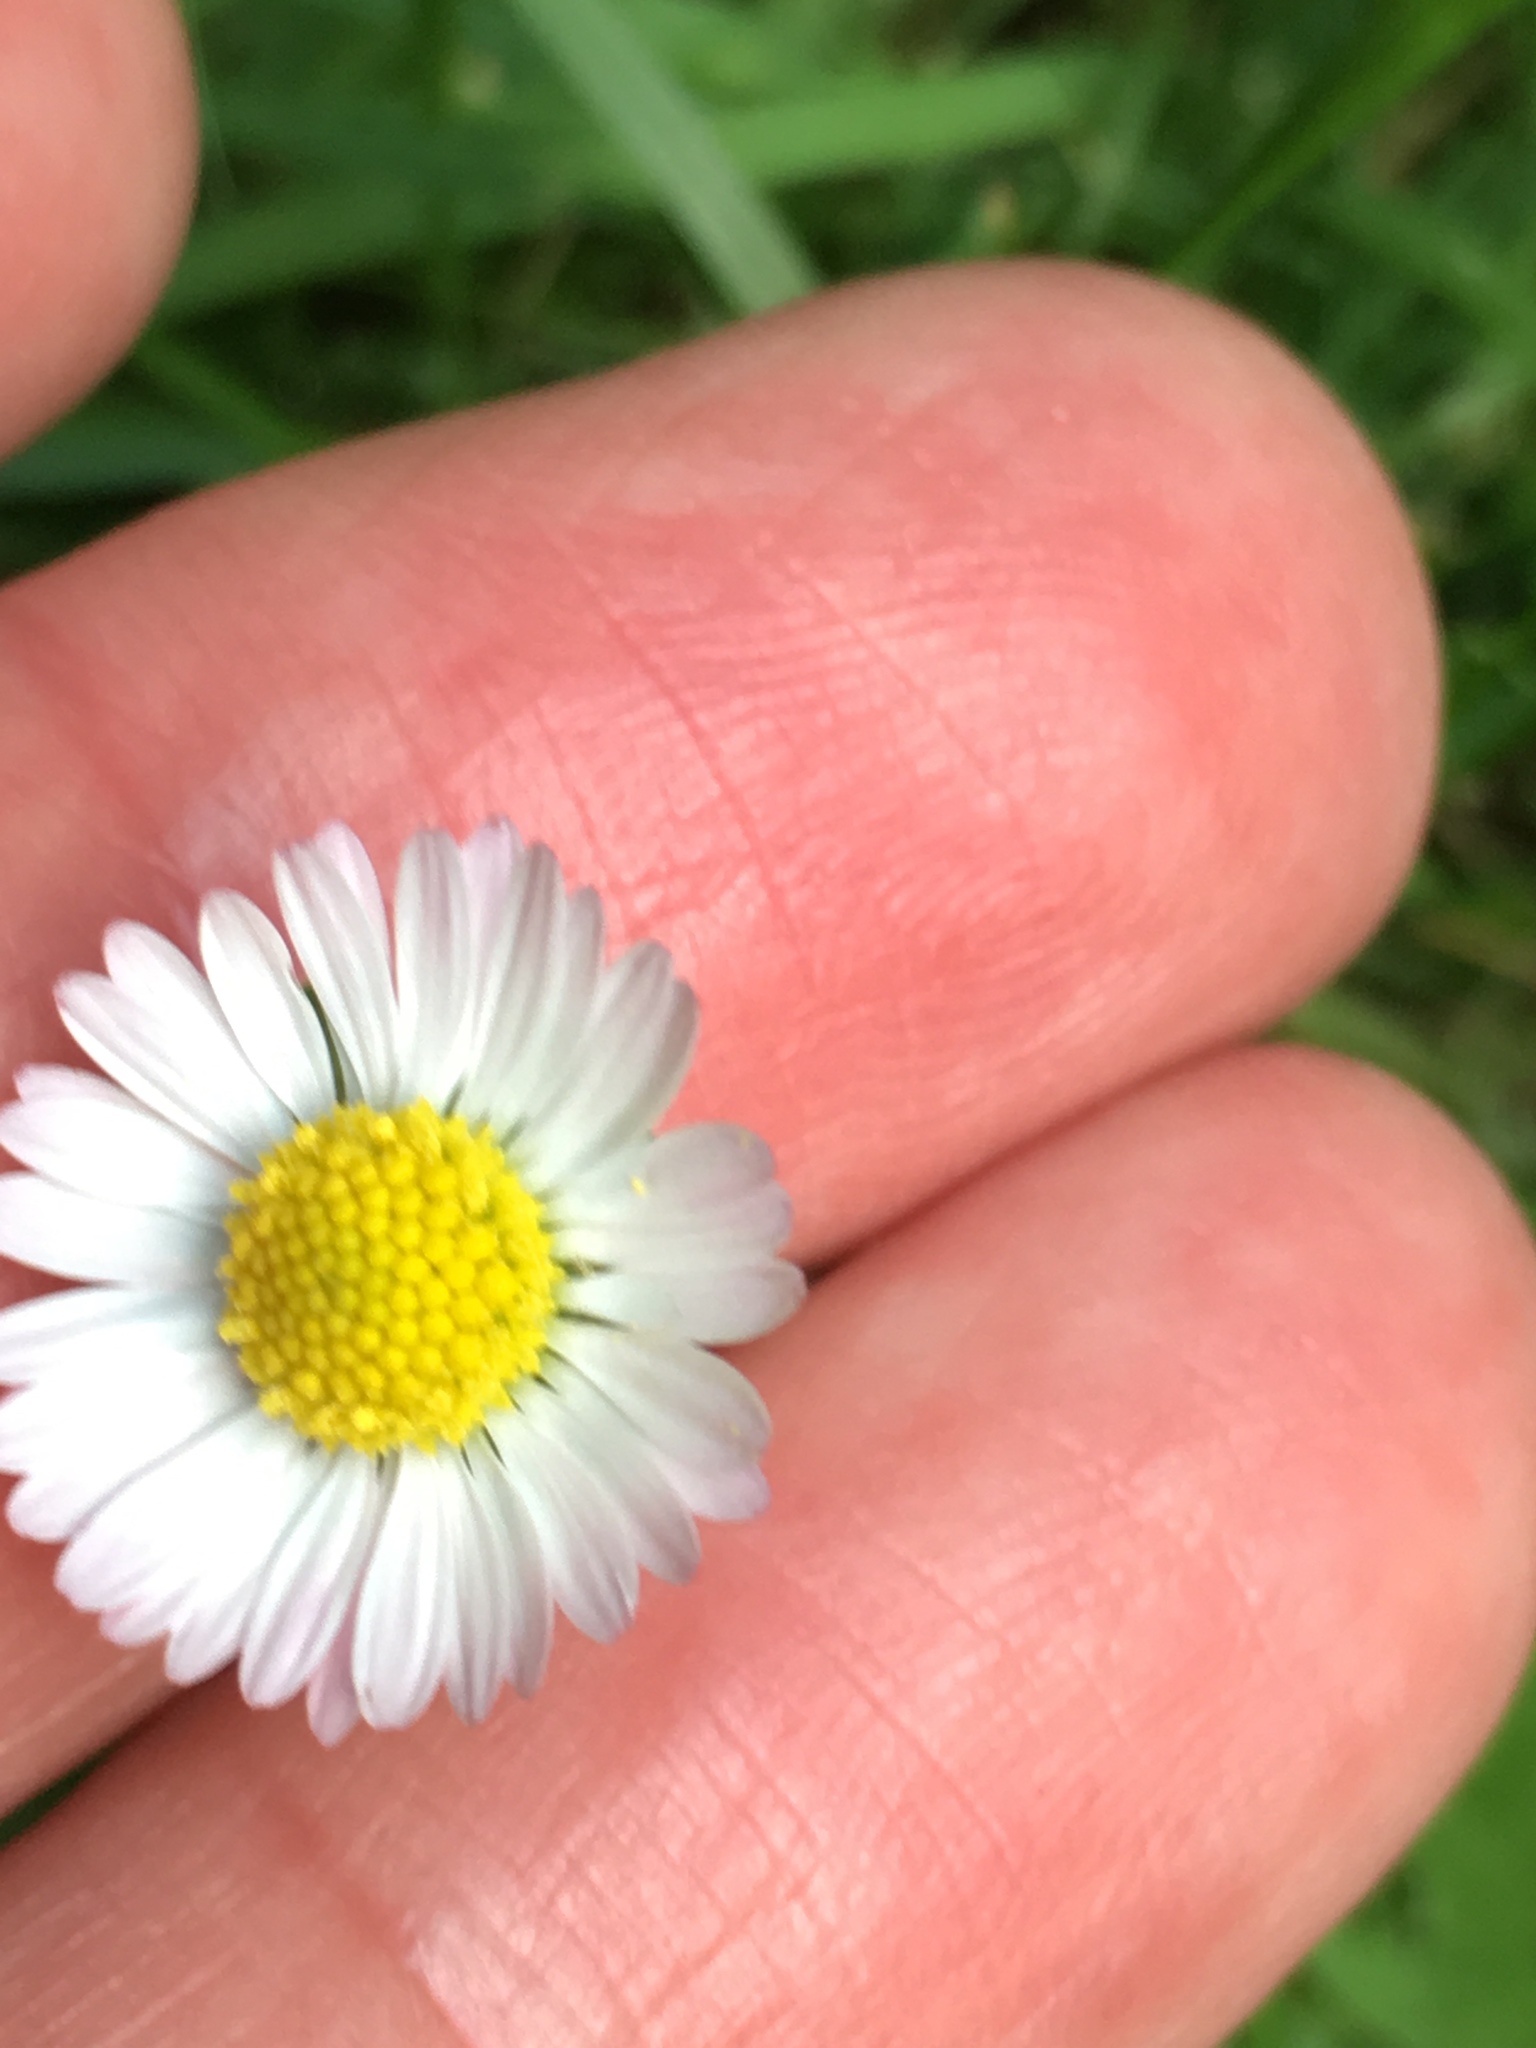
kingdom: Plantae
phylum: Tracheophyta
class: Magnoliopsida
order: Asterales
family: Asteraceae
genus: Bellis
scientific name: Bellis perennis
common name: Lawndaisy
